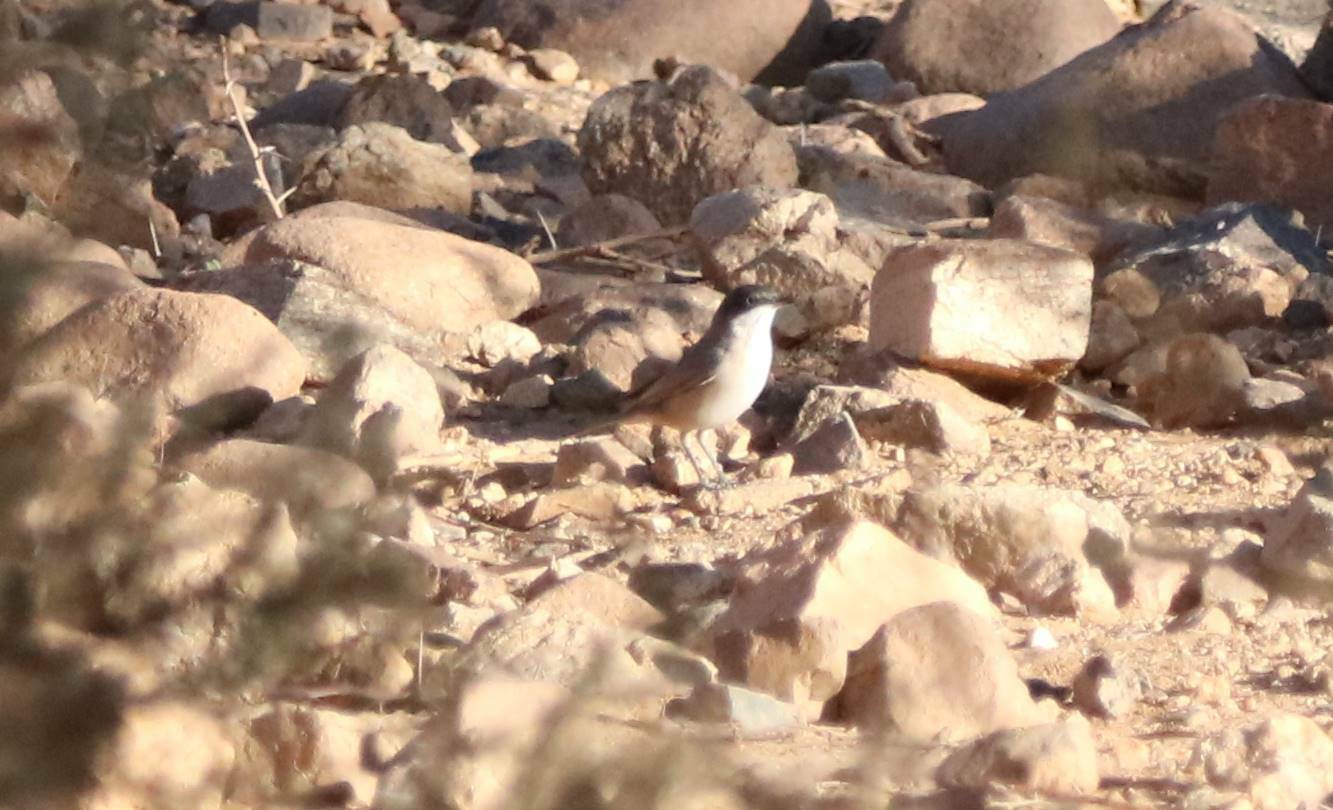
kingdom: Animalia
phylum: Chordata
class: Aves
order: Passeriformes
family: Sylviidae
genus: Sylvia
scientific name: Sylvia hortensis
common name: Orphean warbler
